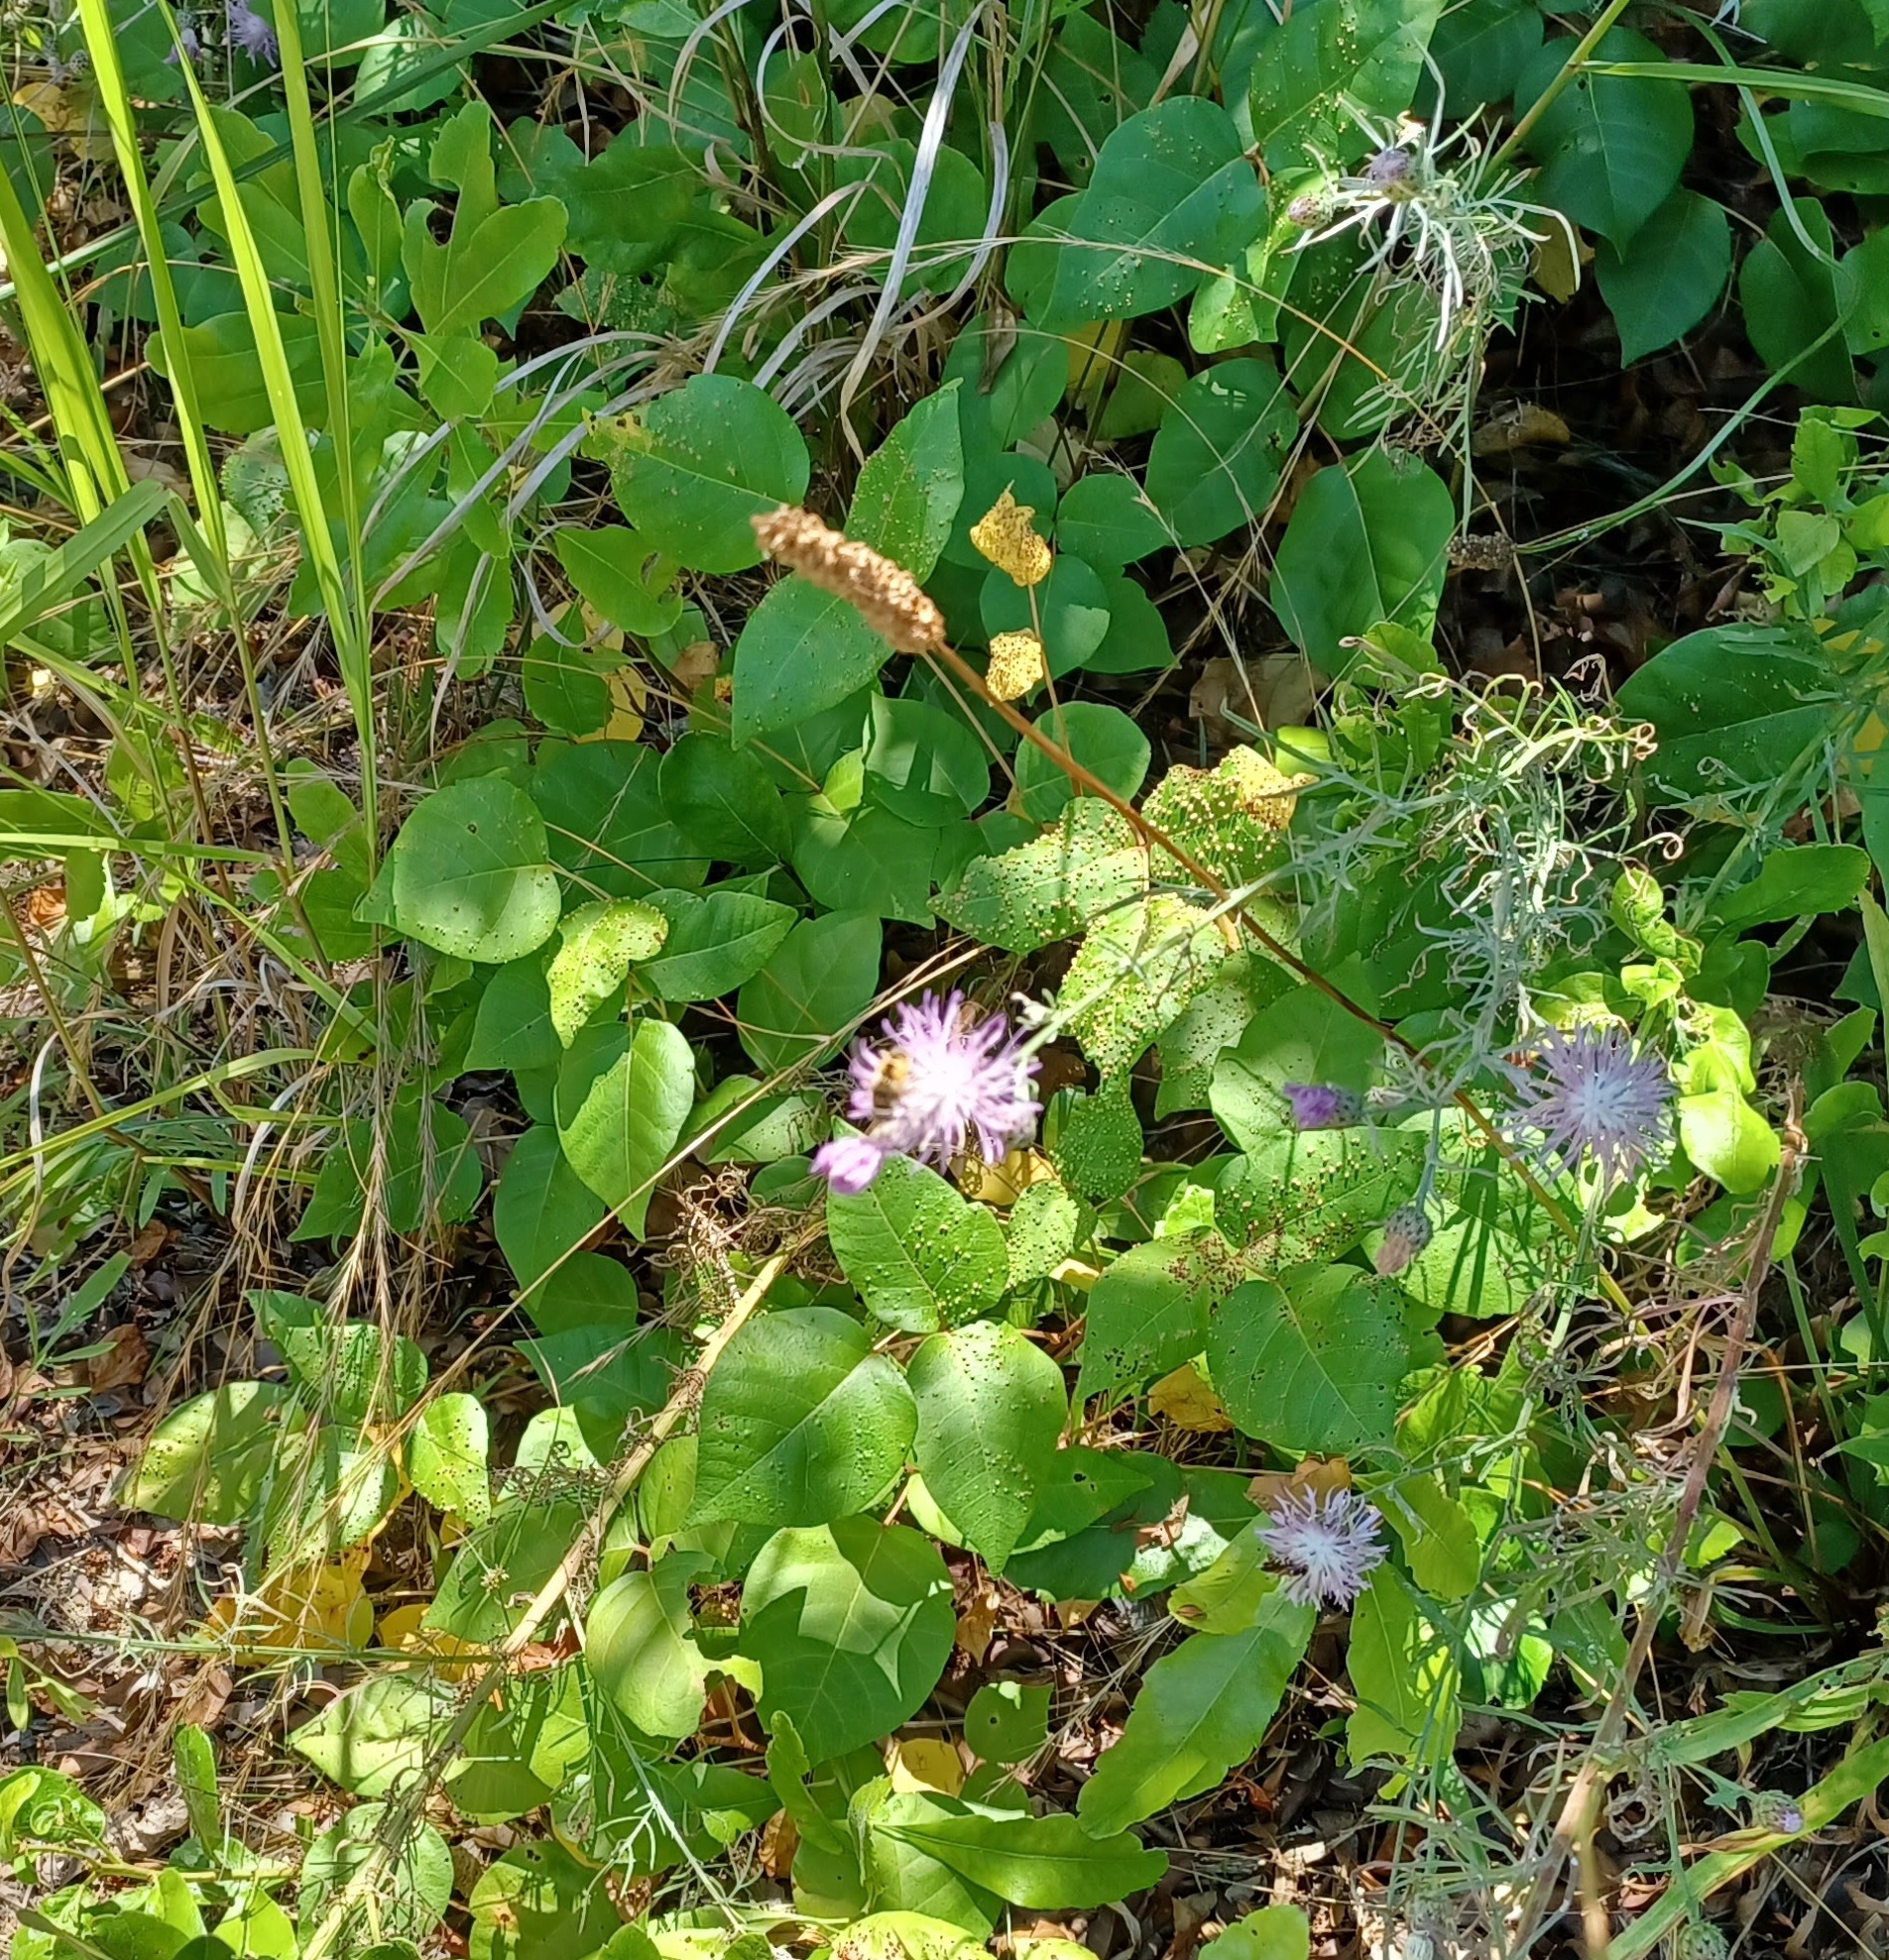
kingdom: Animalia
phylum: Arthropoda
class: Arachnida
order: Trombidiformes
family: Eriophyidae
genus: Aculops
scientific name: Aculops
